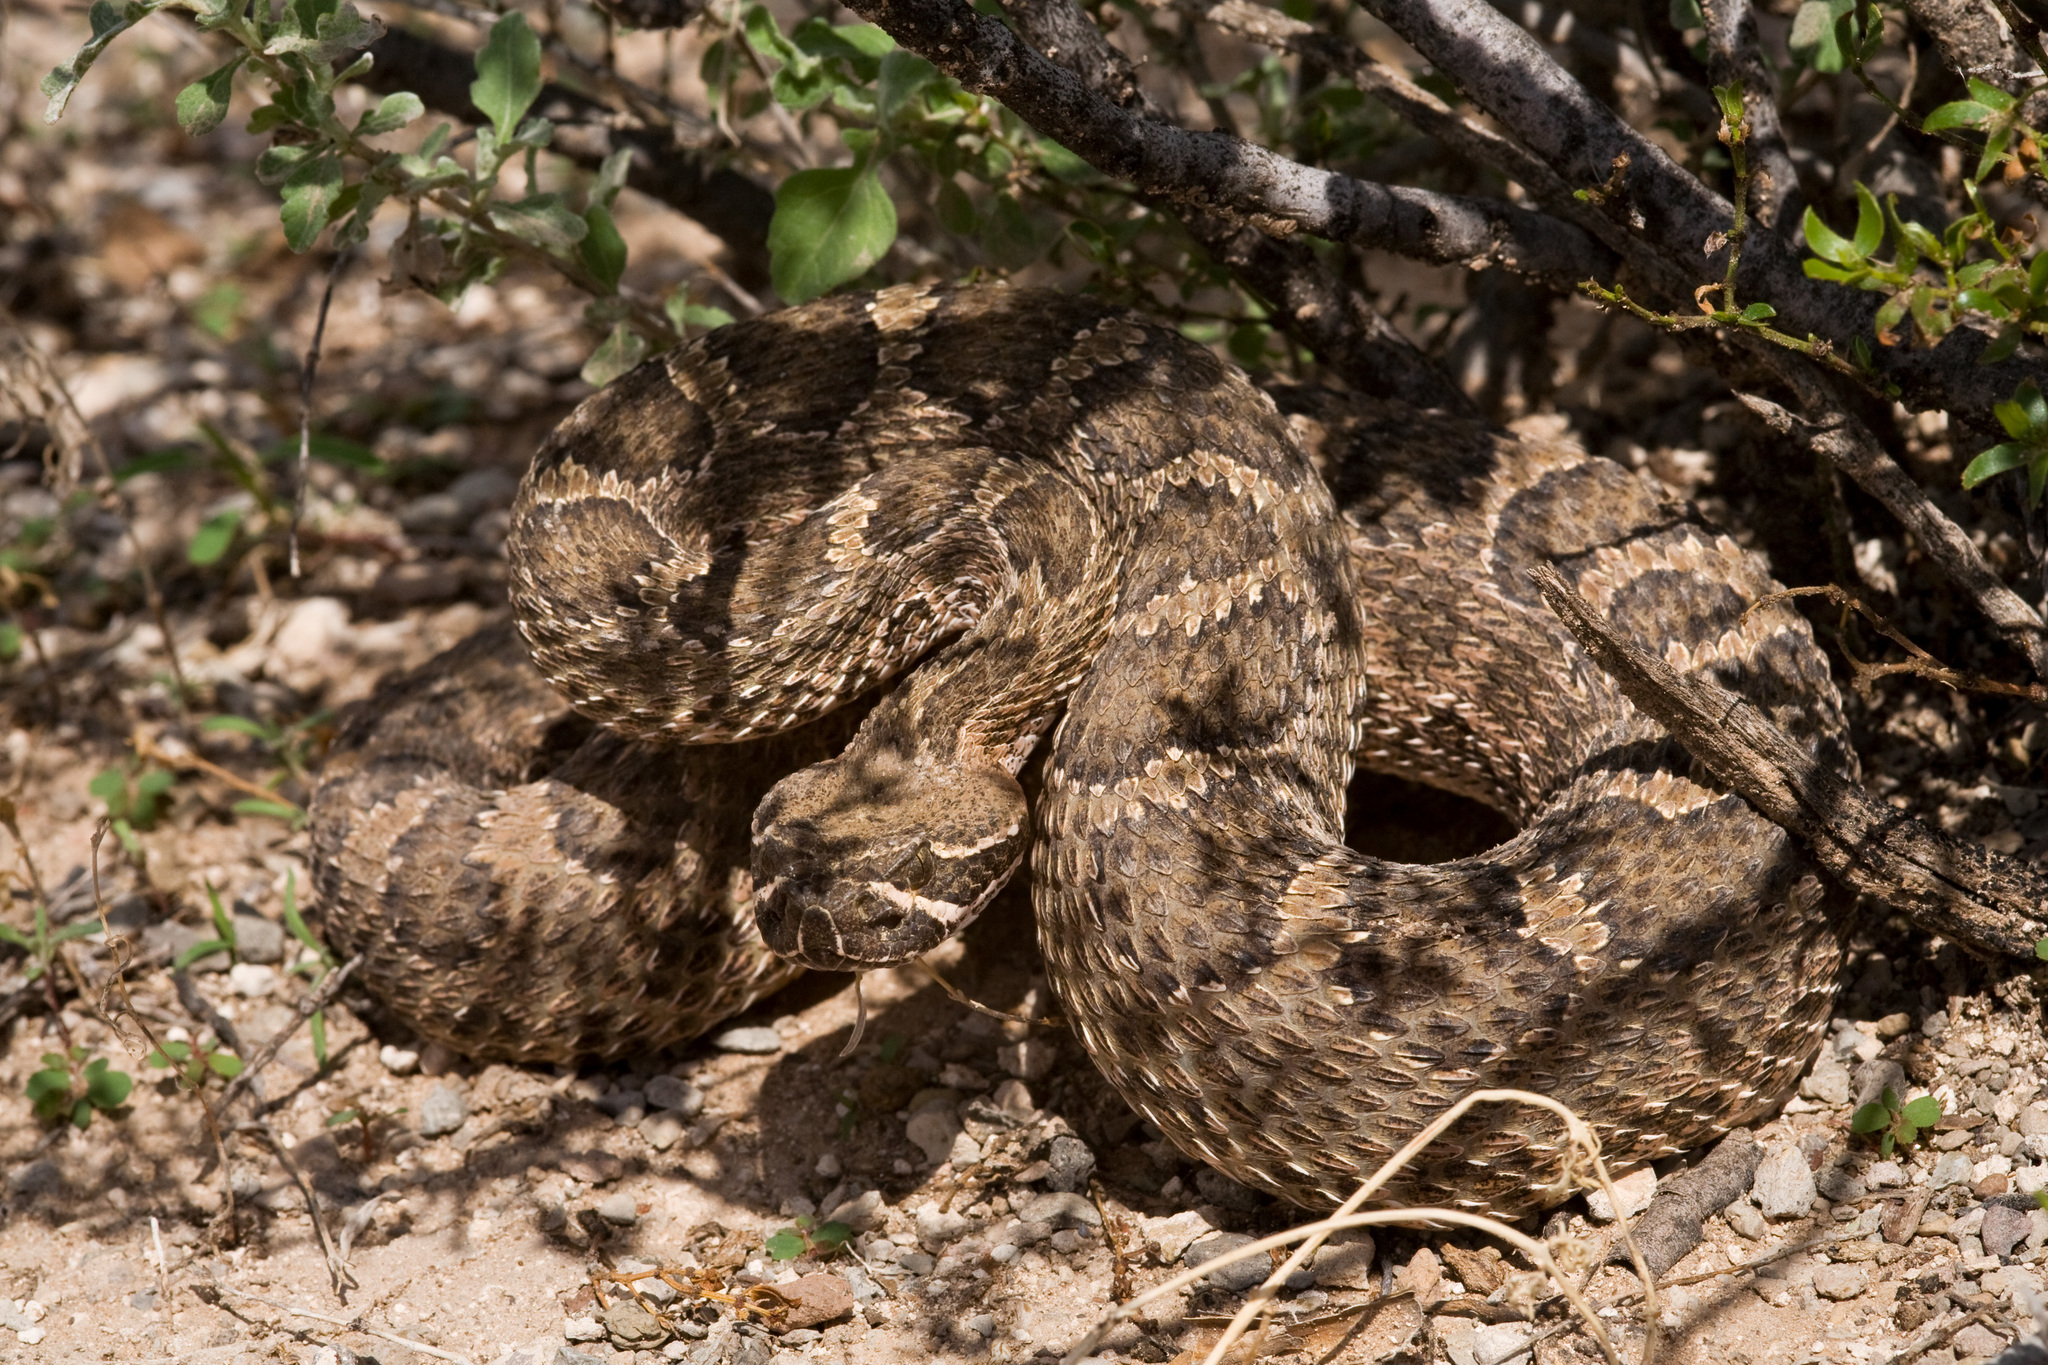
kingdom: Animalia
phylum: Chordata
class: Squamata
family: Viperidae
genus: Crotalus
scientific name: Crotalus viridis
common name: Prairie rattlesnake
